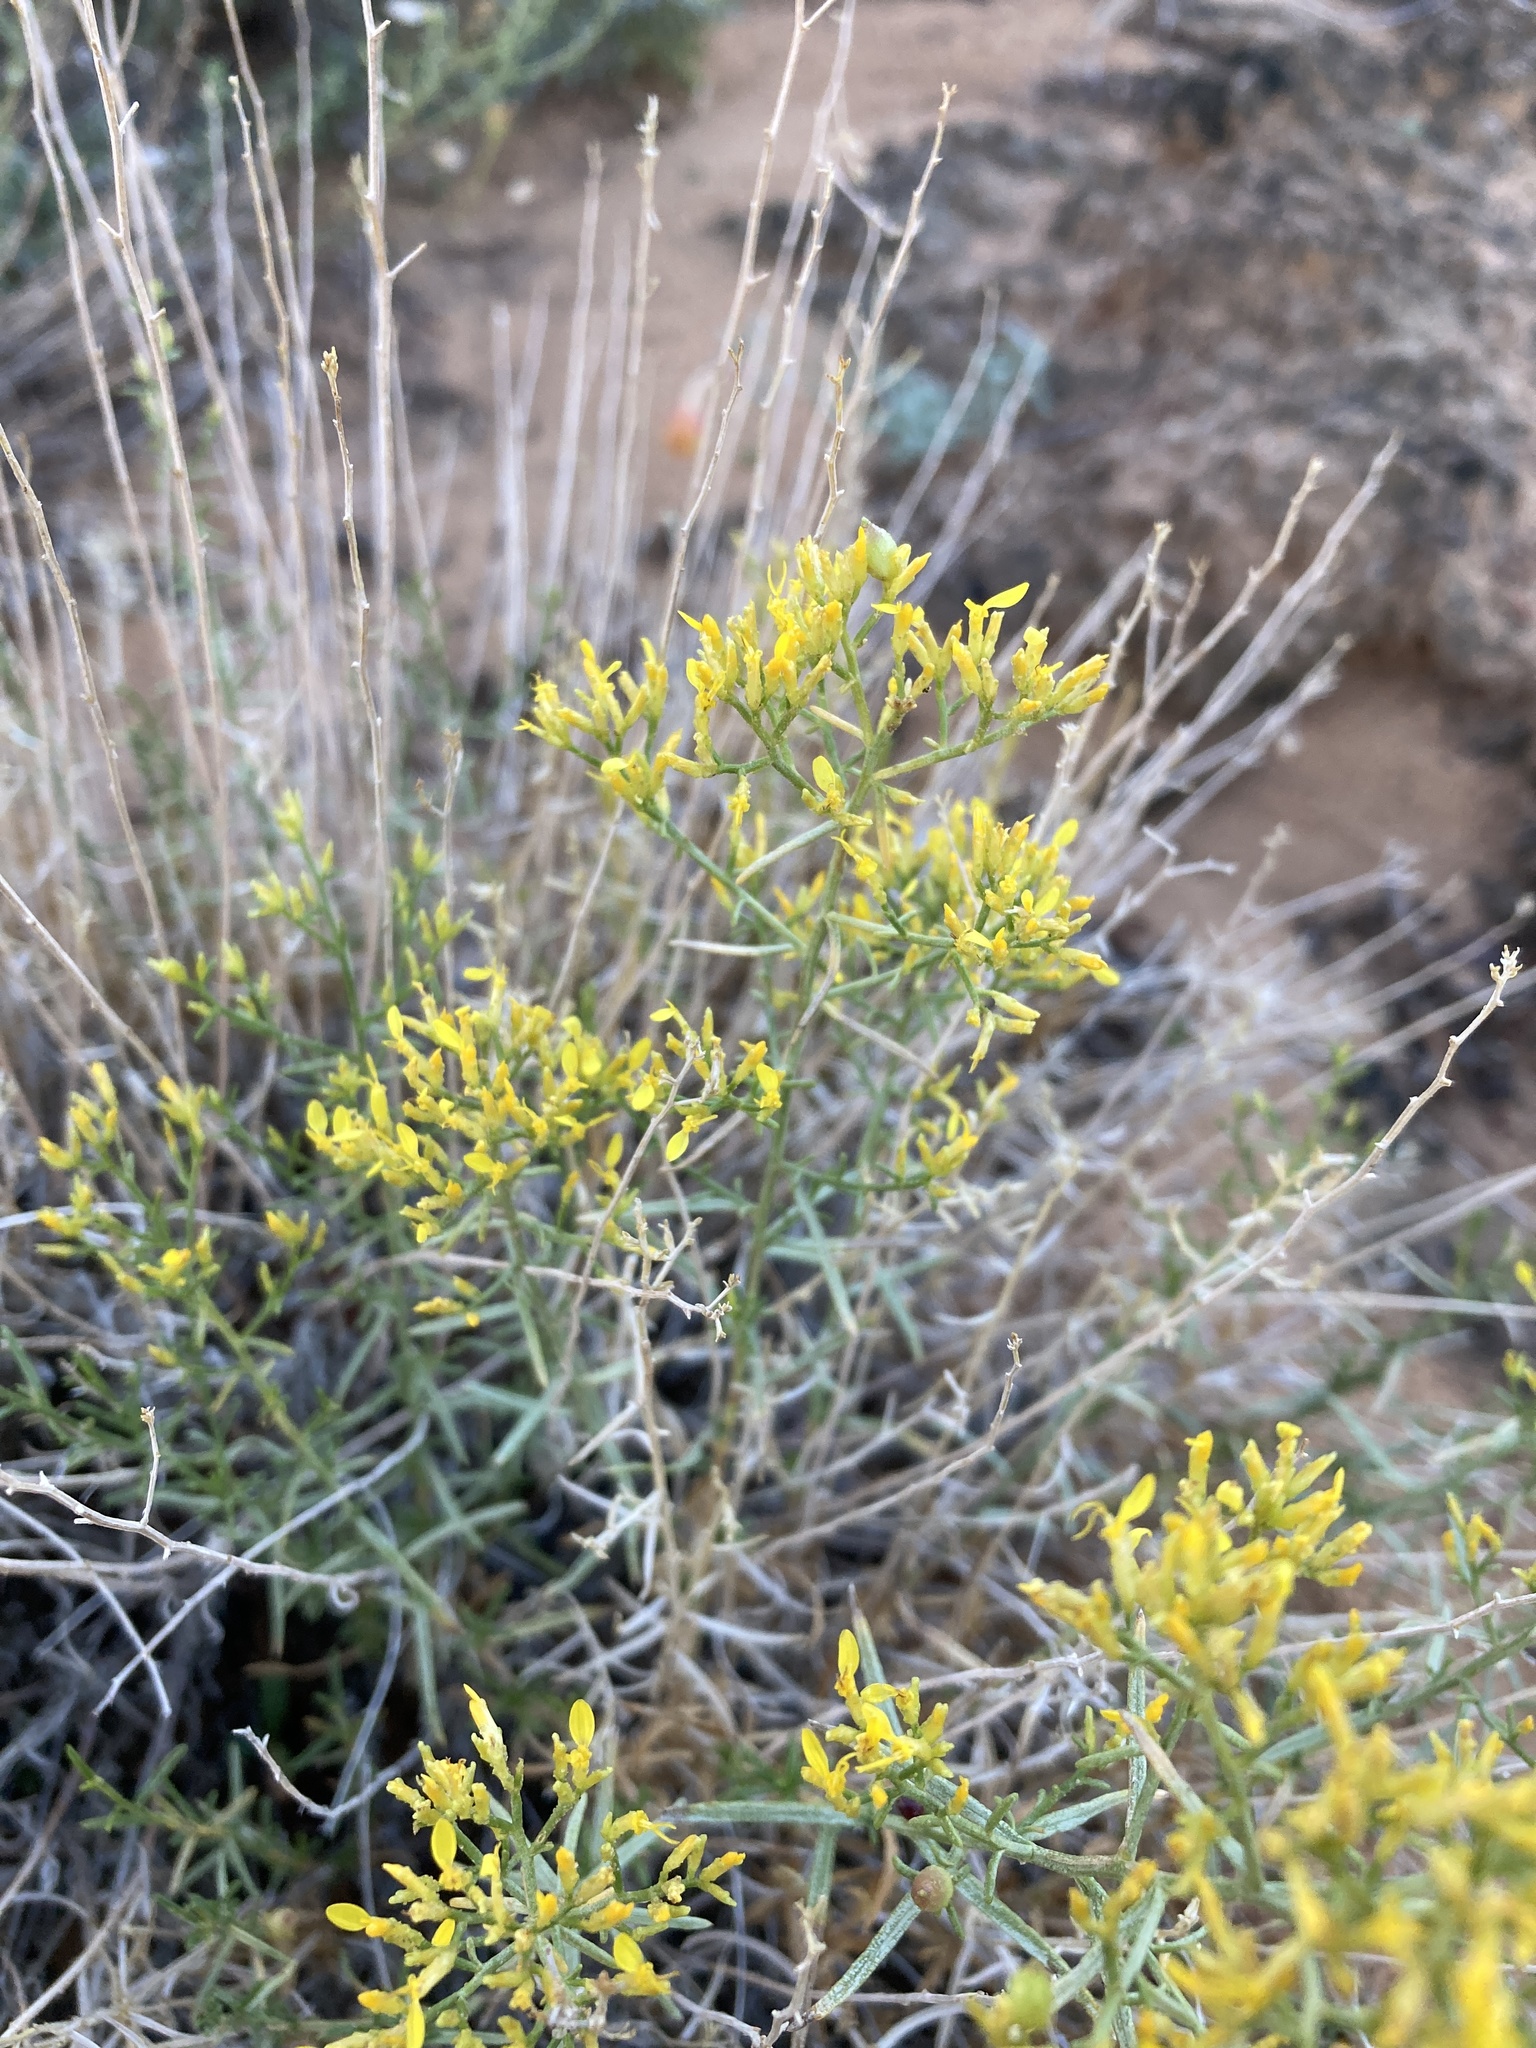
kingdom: Plantae
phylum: Tracheophyta
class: Magnoliopsida
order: Asterales
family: Asteraceae
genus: Gutierrezia
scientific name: Gutierrezia microcephala
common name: Thread snakeweed
